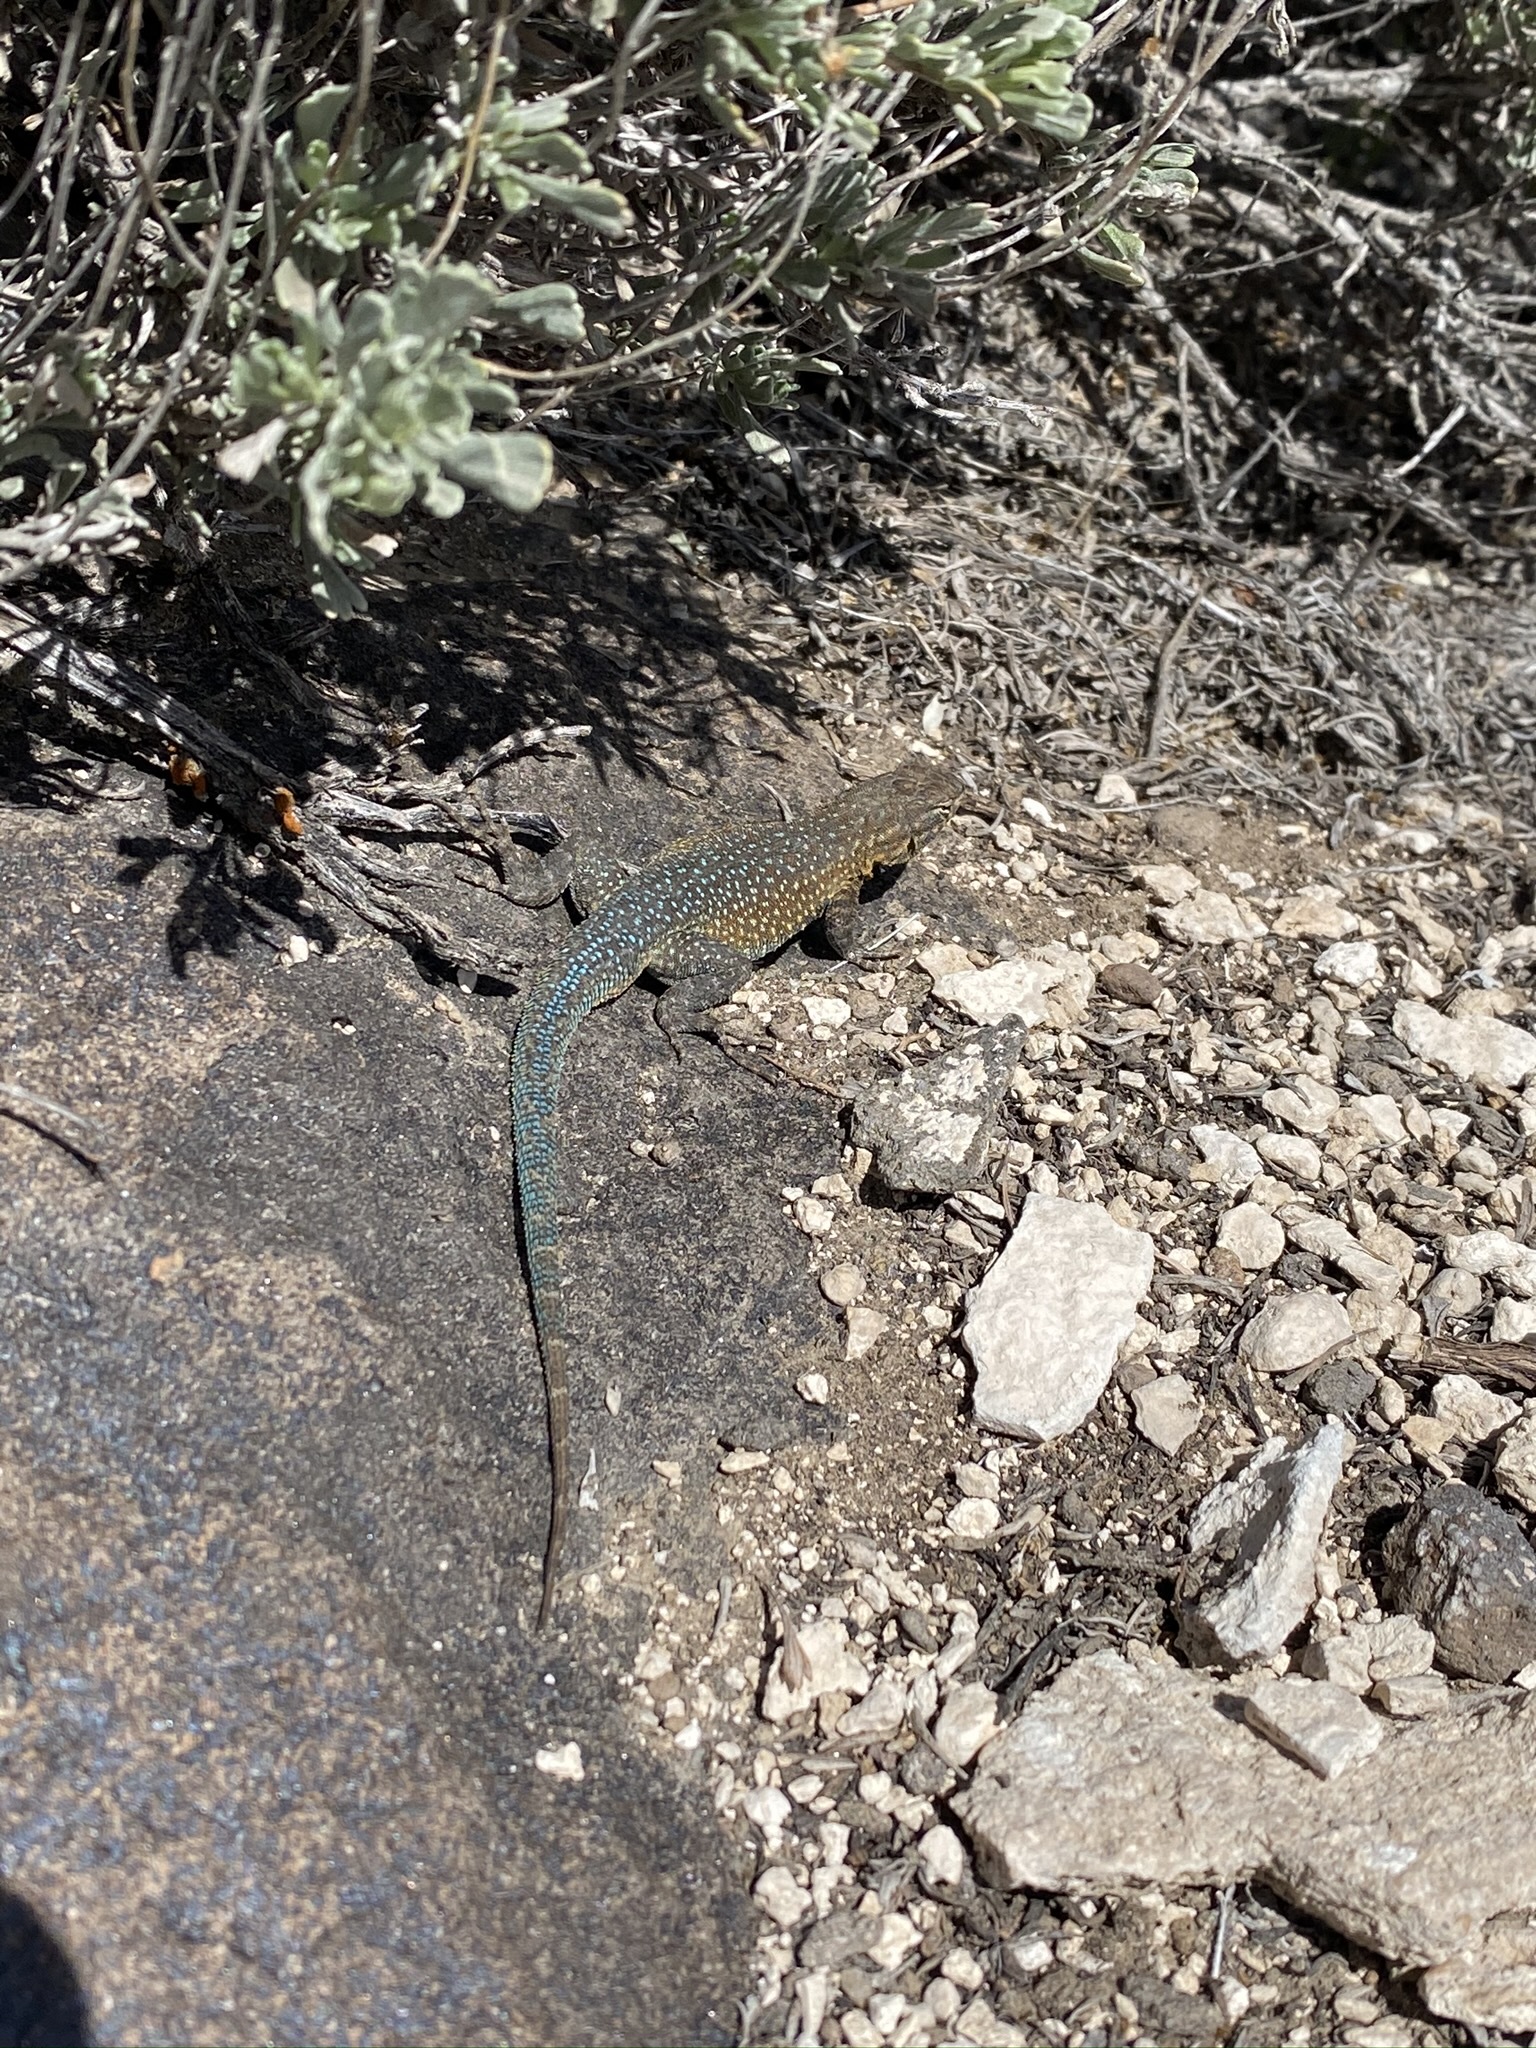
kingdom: Animalia
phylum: Chordata
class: Squamata
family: Phrynosomatidae
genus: Uta
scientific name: Uta stansburiana
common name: Side-blotched lizard
